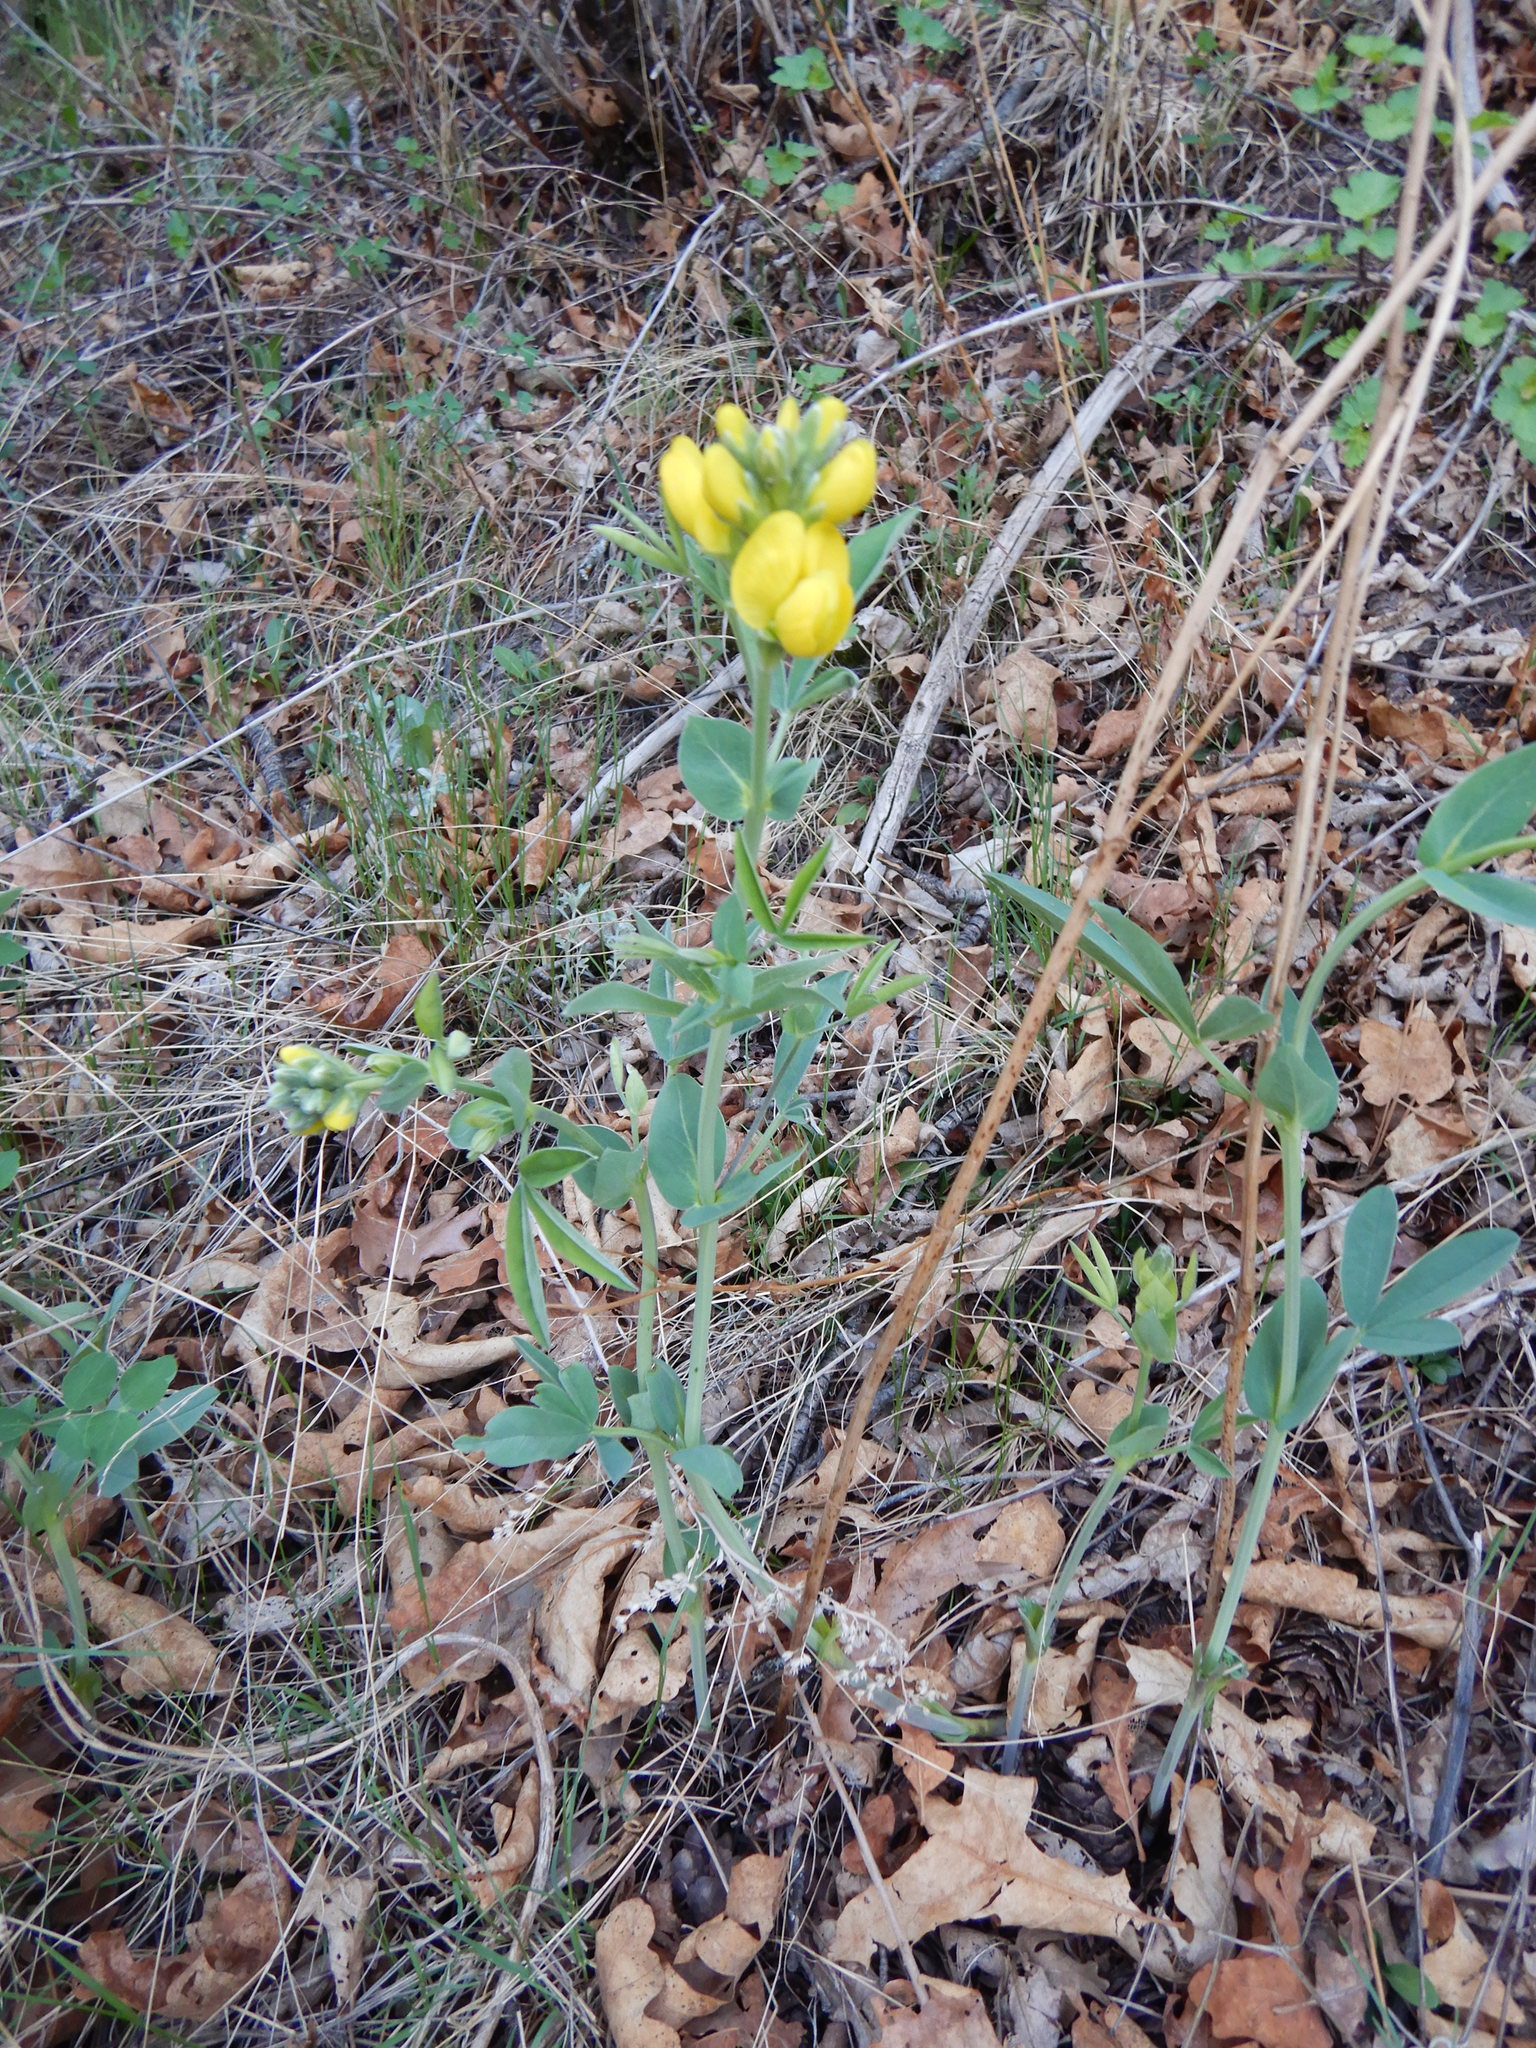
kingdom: Plantae
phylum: Tracheophyta
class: Magnoliopsida
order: Fabales
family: Fabaceae
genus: Thermopsis
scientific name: Thermopsis rhombifolia
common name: Circle-pod-pea
